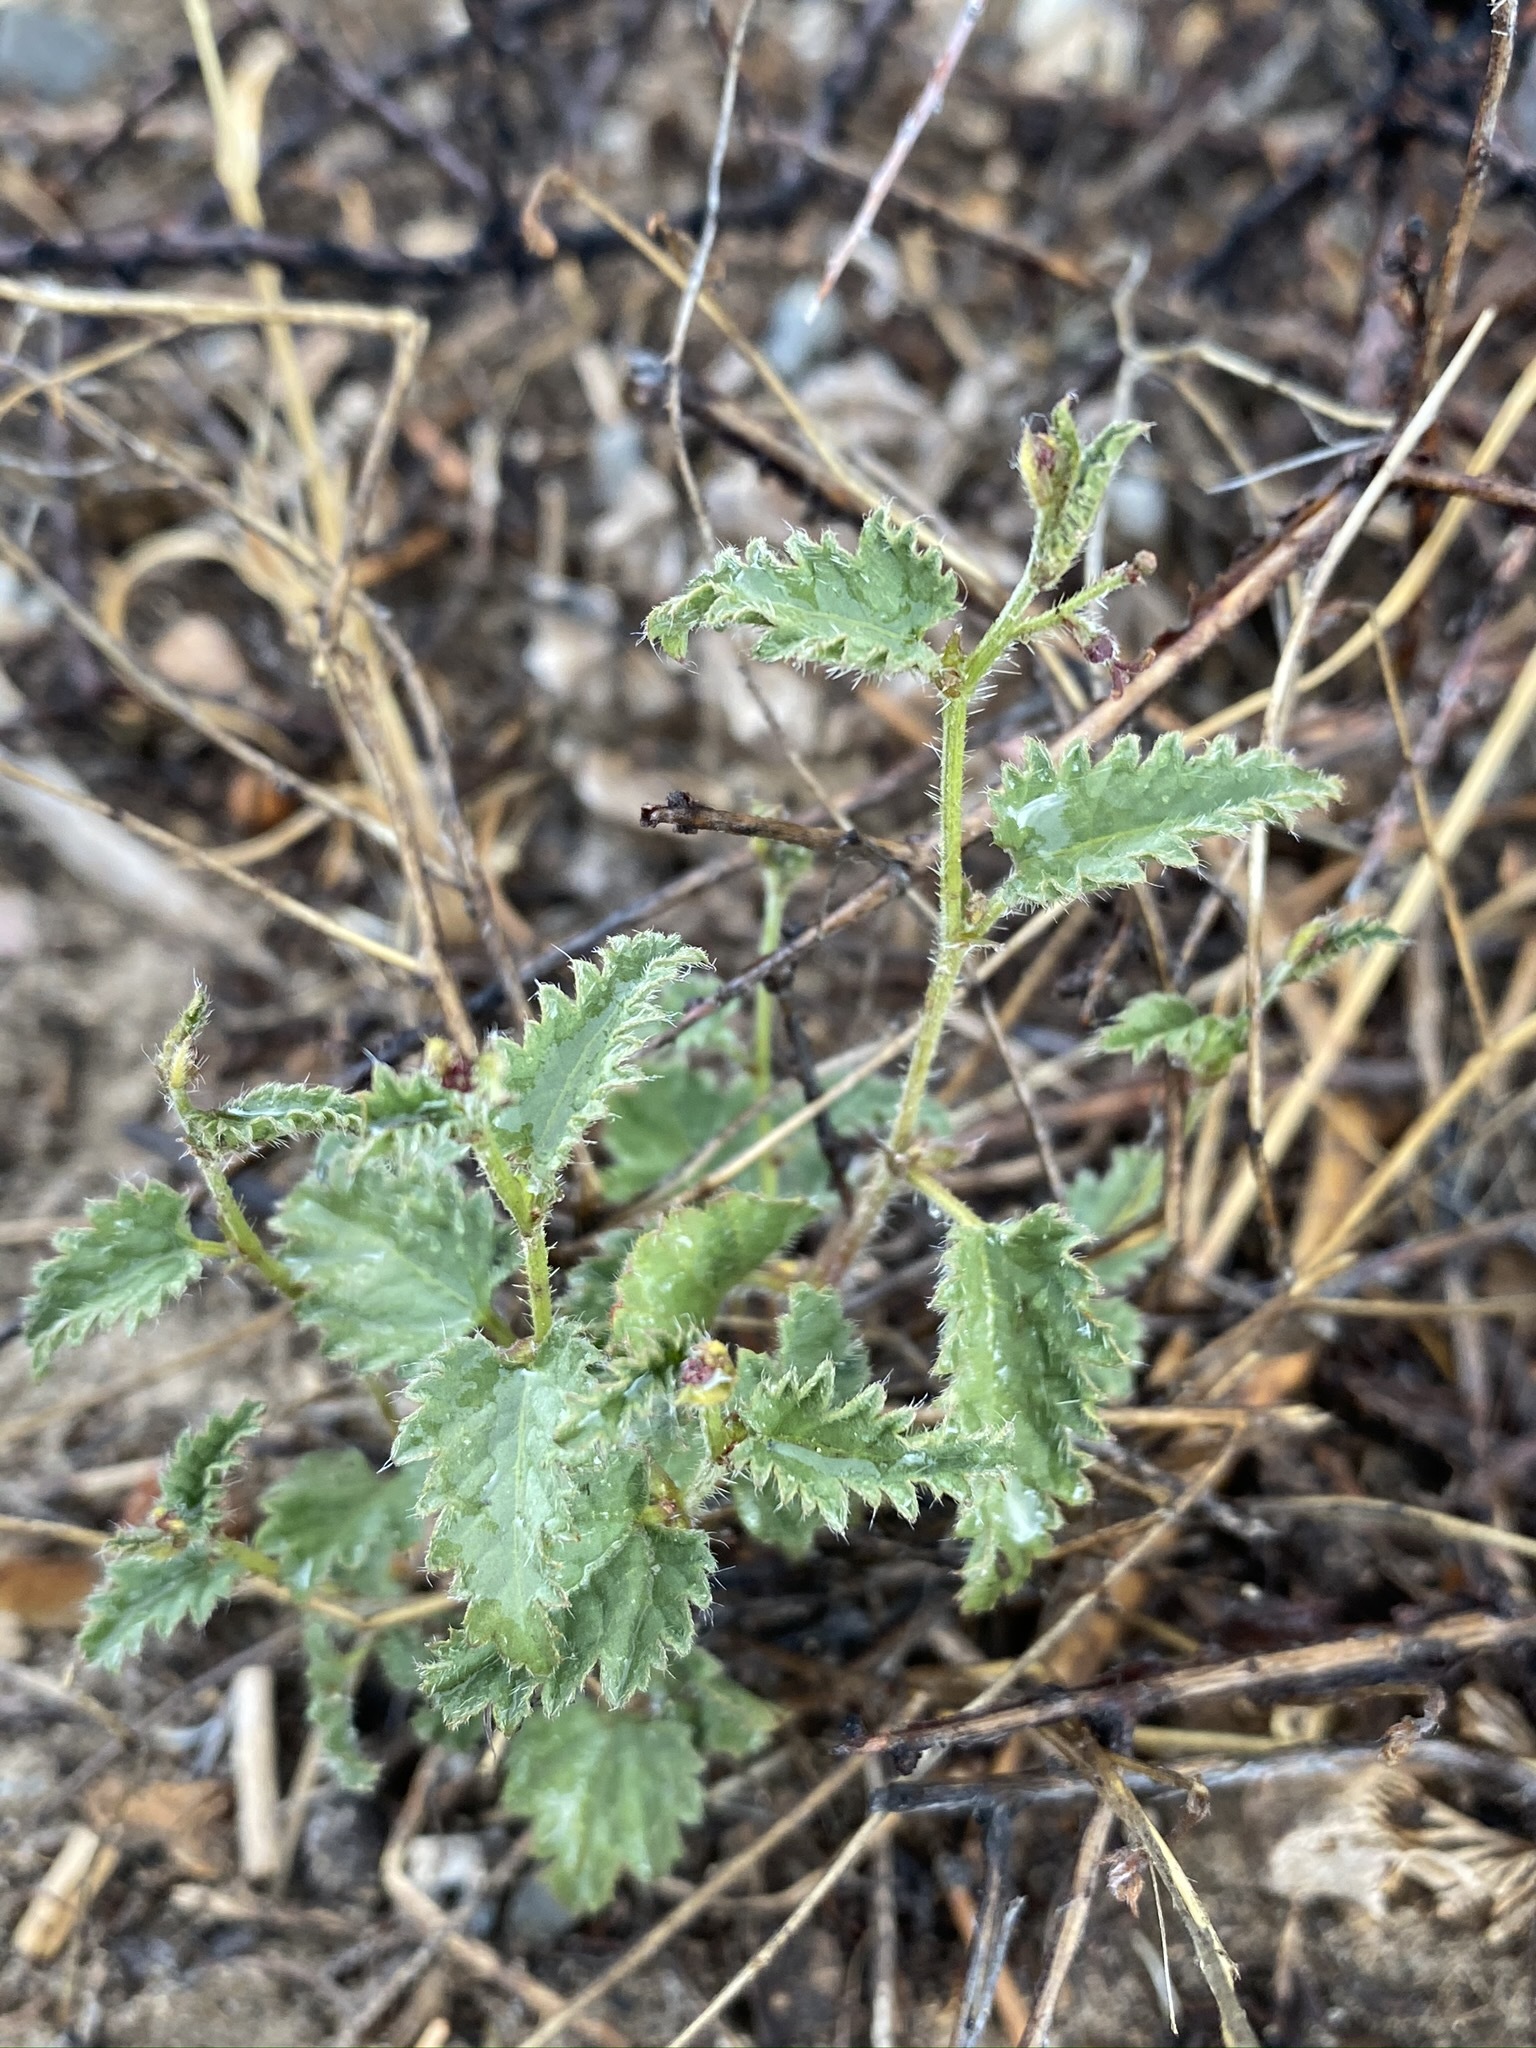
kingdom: Plantae
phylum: Tracheophyta
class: Magnoliopsida
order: Malpighiales
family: Euphorbiaceae
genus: Tragia
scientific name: Tragia ramosa
